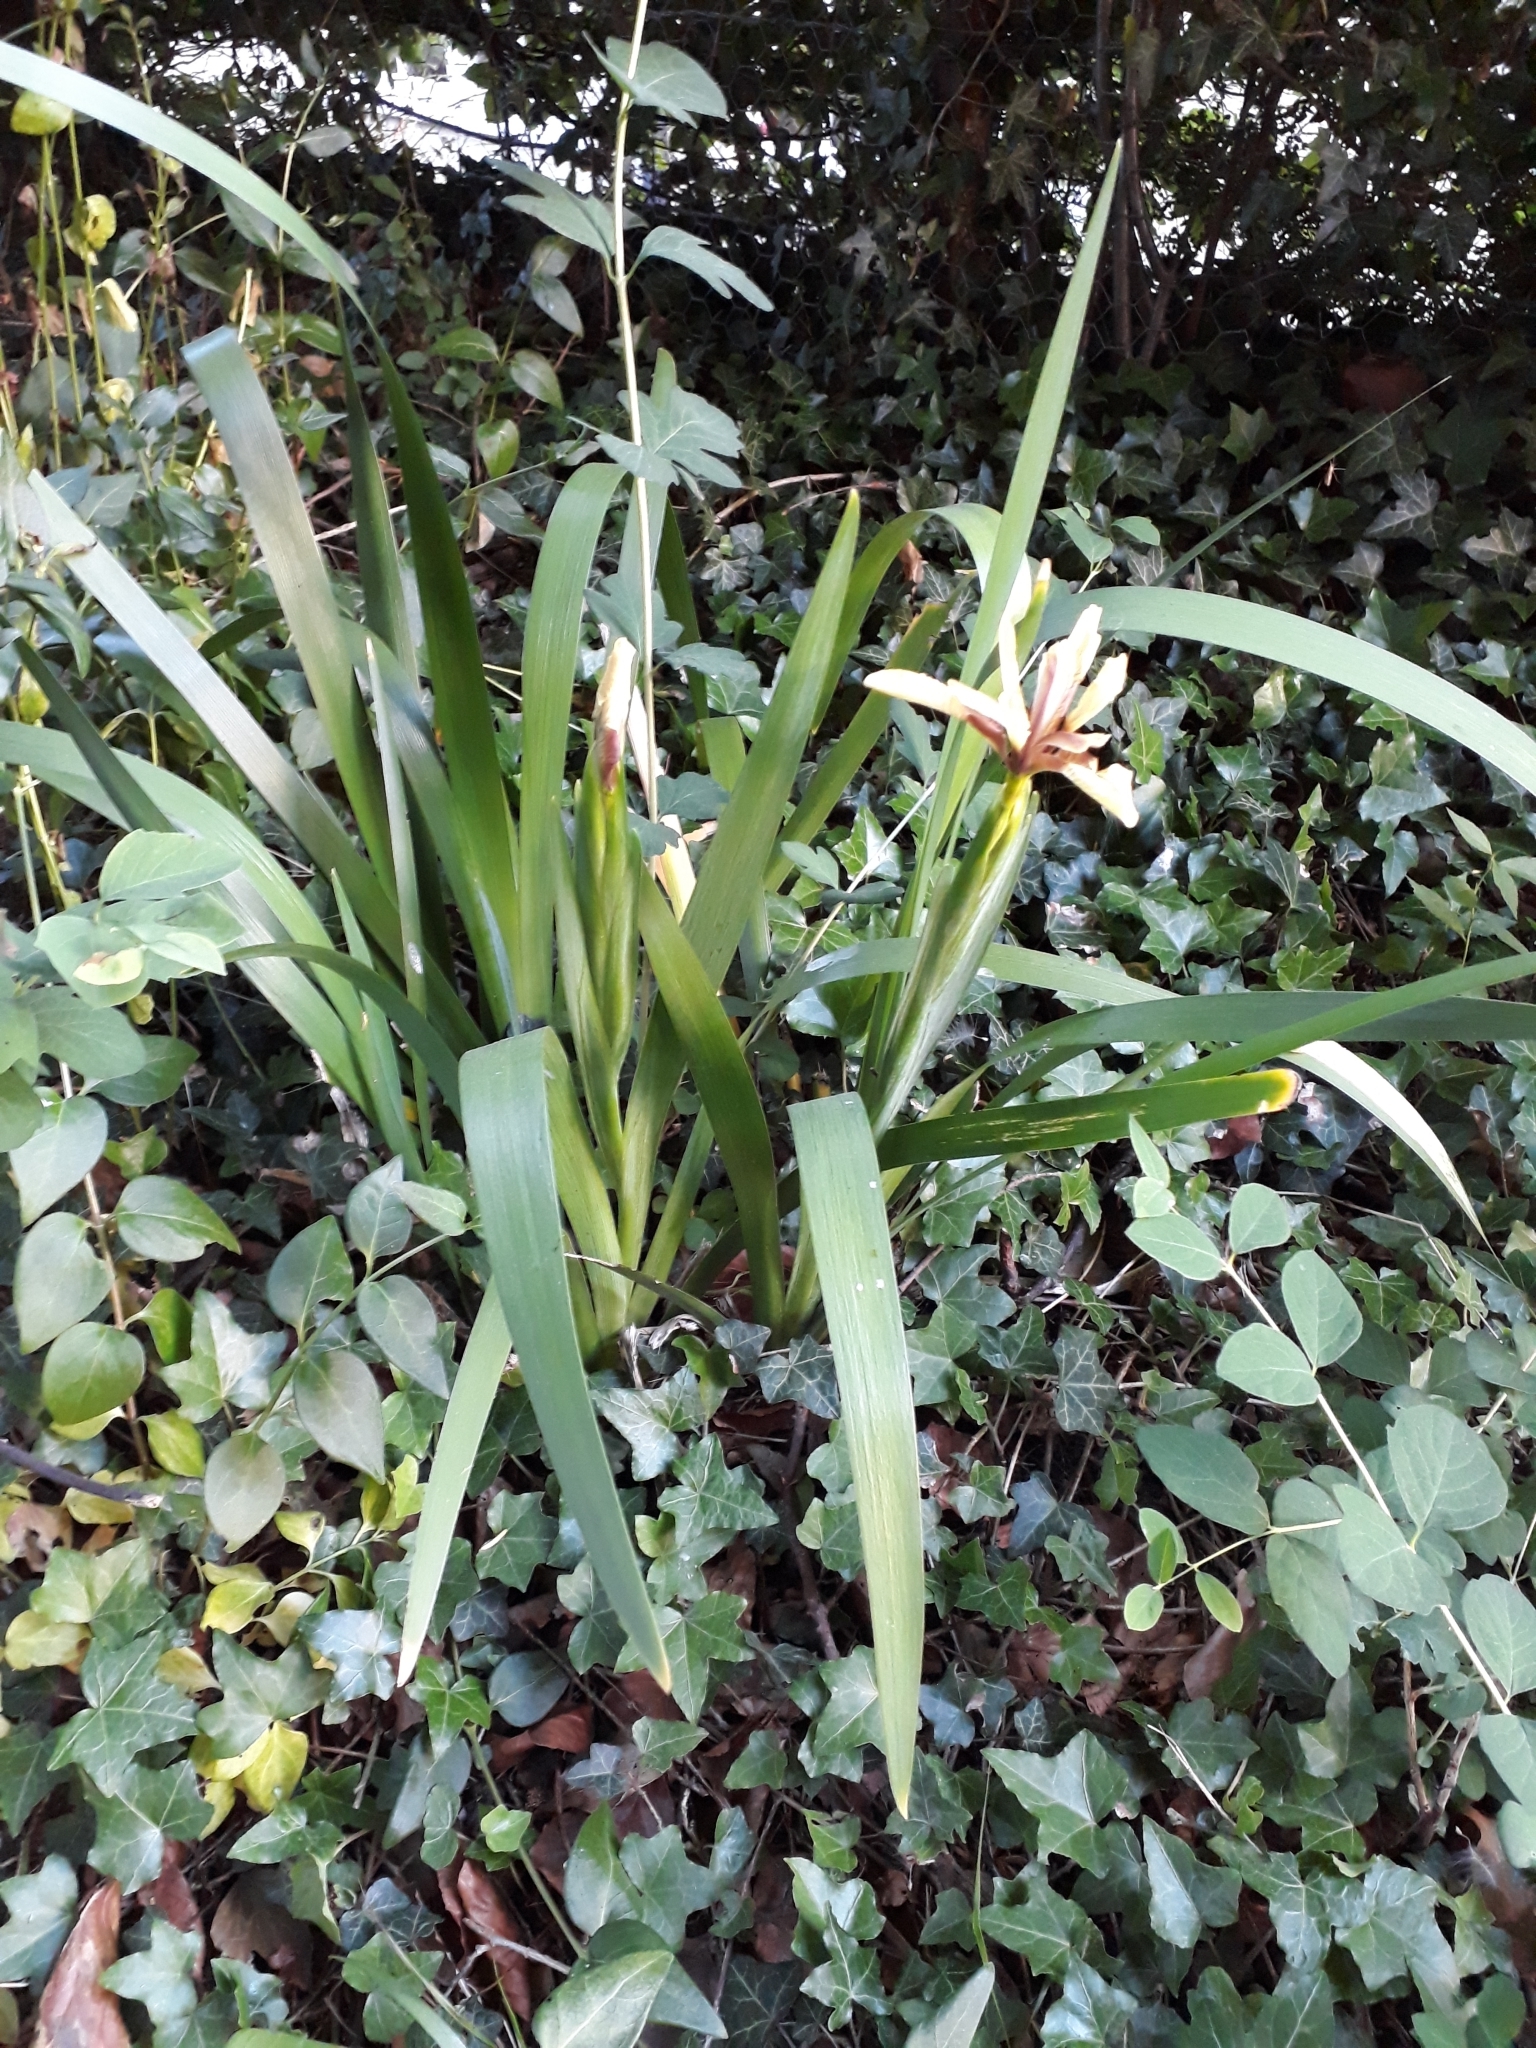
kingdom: Plantae
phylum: Tracheophyta
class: Liliopsida
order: Asparagales
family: Iridaceae
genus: Iris
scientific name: Iris foetidissima
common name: Stinking iris
